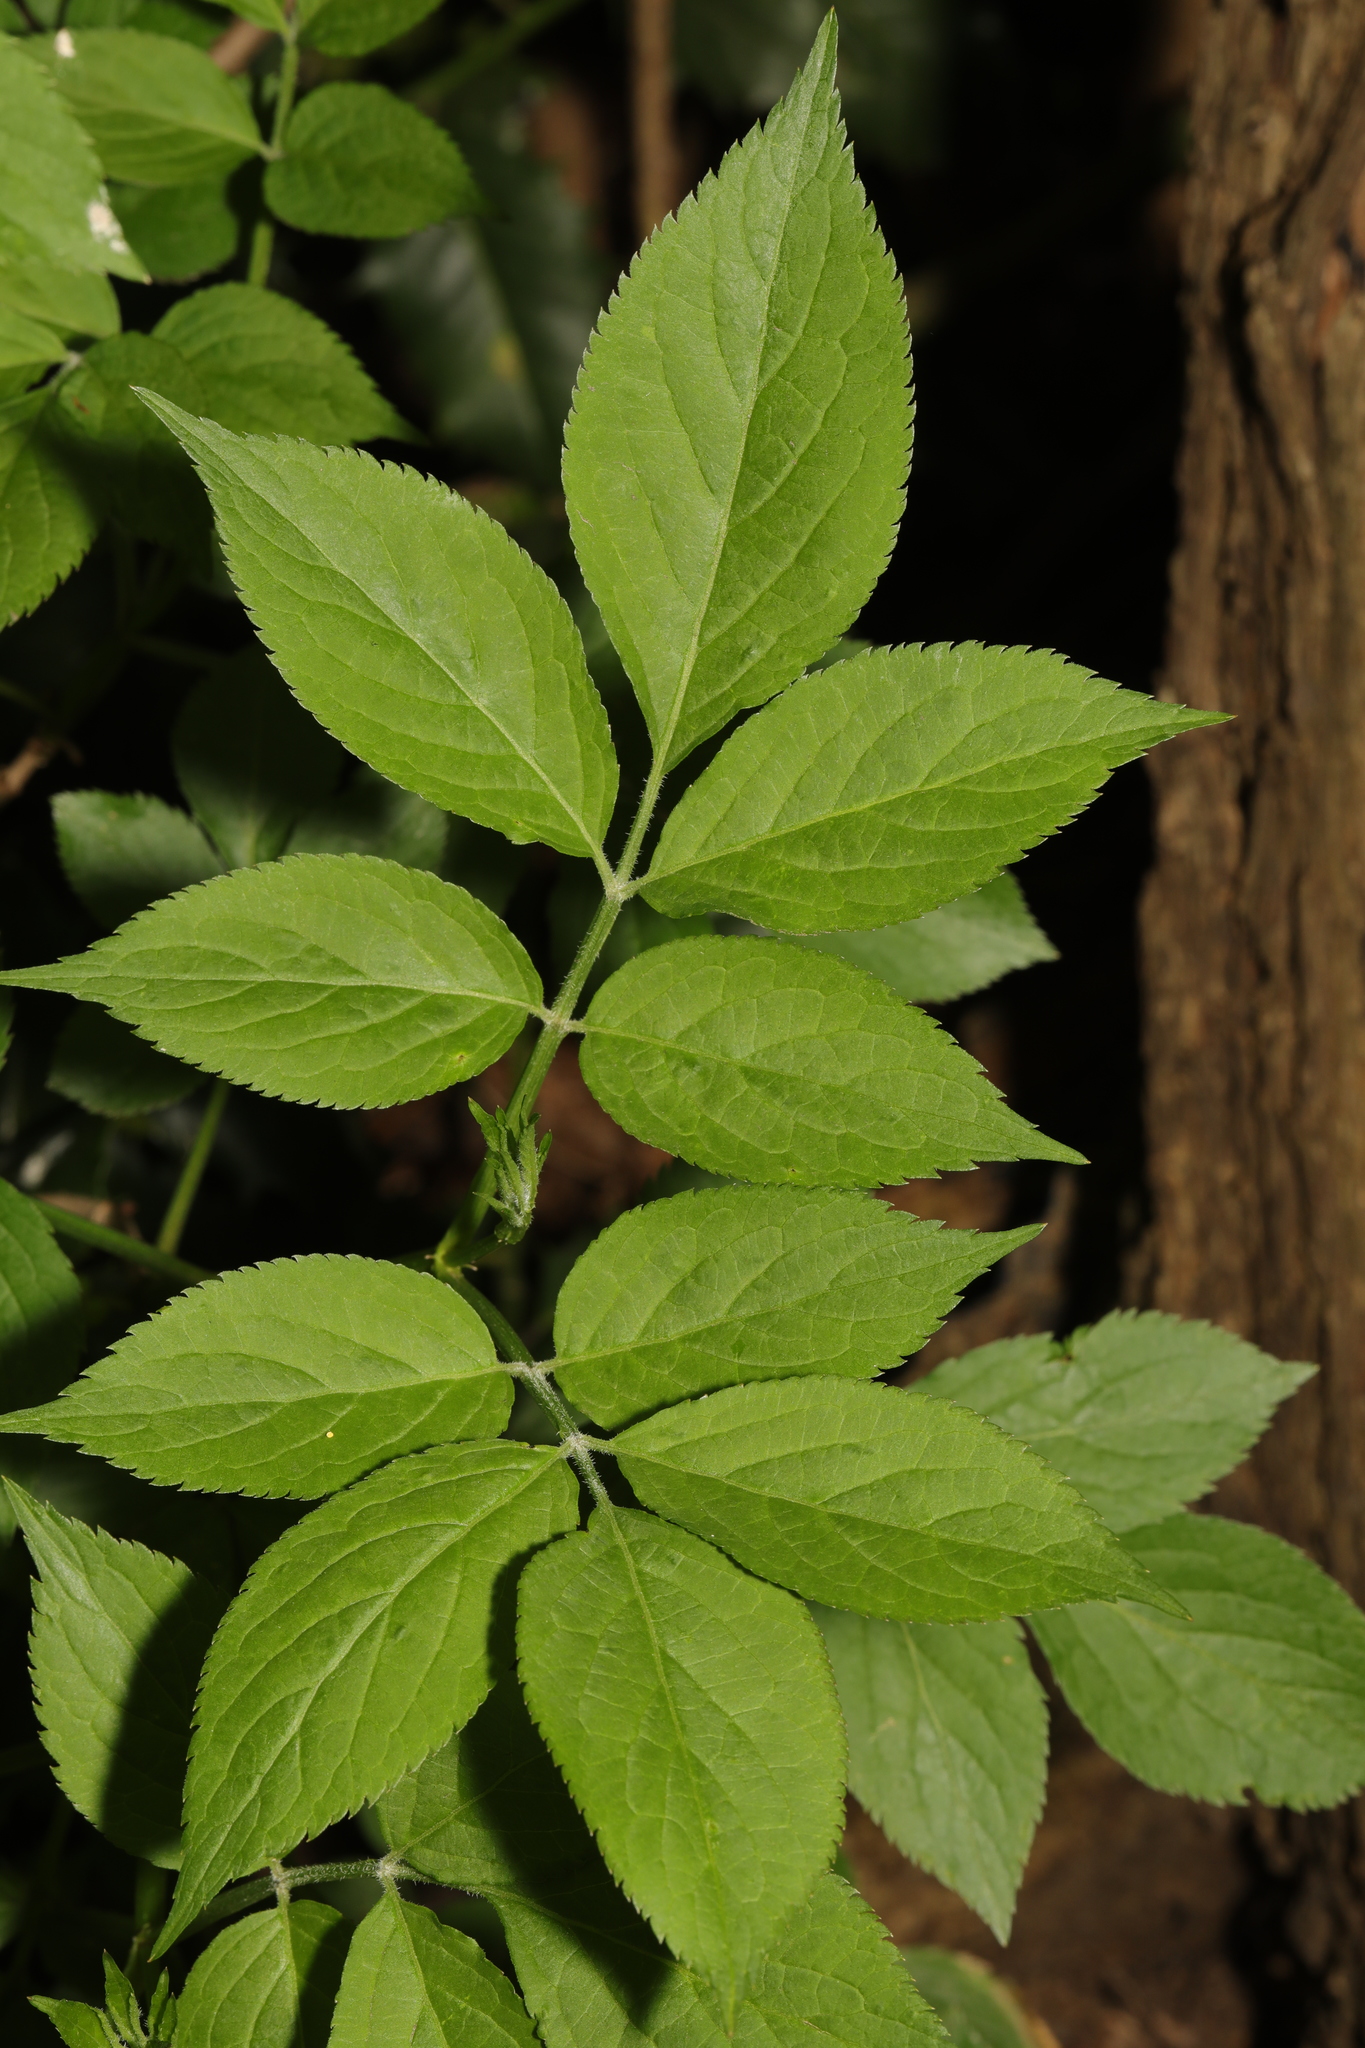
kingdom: Plantae
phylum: Tracheophyta
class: Magnoliopsida
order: Dipsacales
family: Viburnaceae
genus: Sambucus
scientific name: Sambucus nigra
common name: Elder
